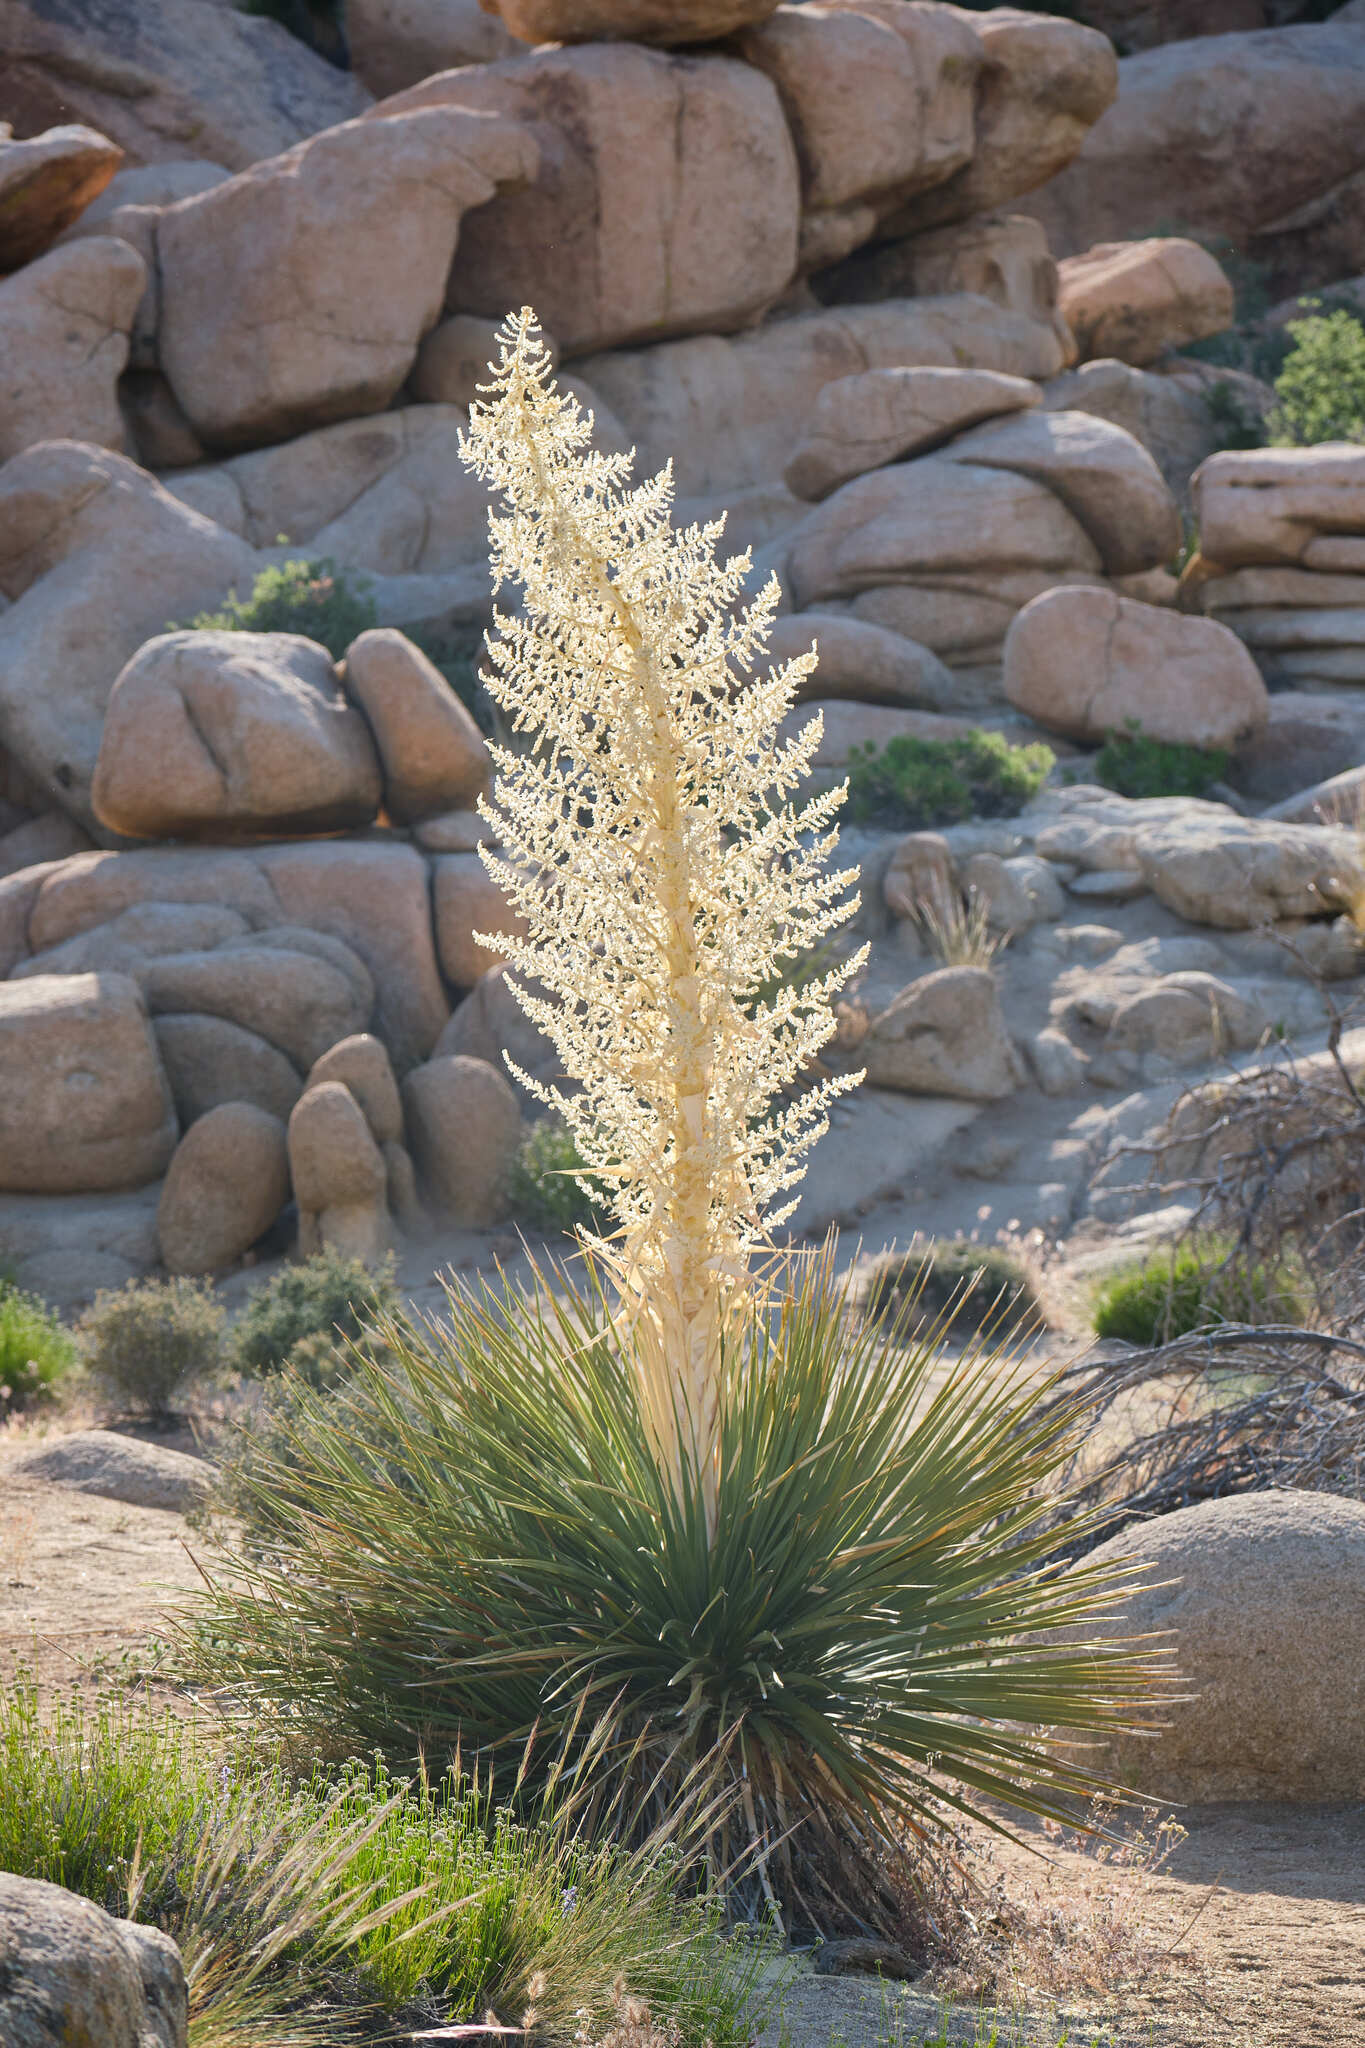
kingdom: Plantae
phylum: Tracheophyta
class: Liliopsida
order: Asparagales
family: Asparagaceae
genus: Nolina
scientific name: Nolina parryi
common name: Parry nolina
